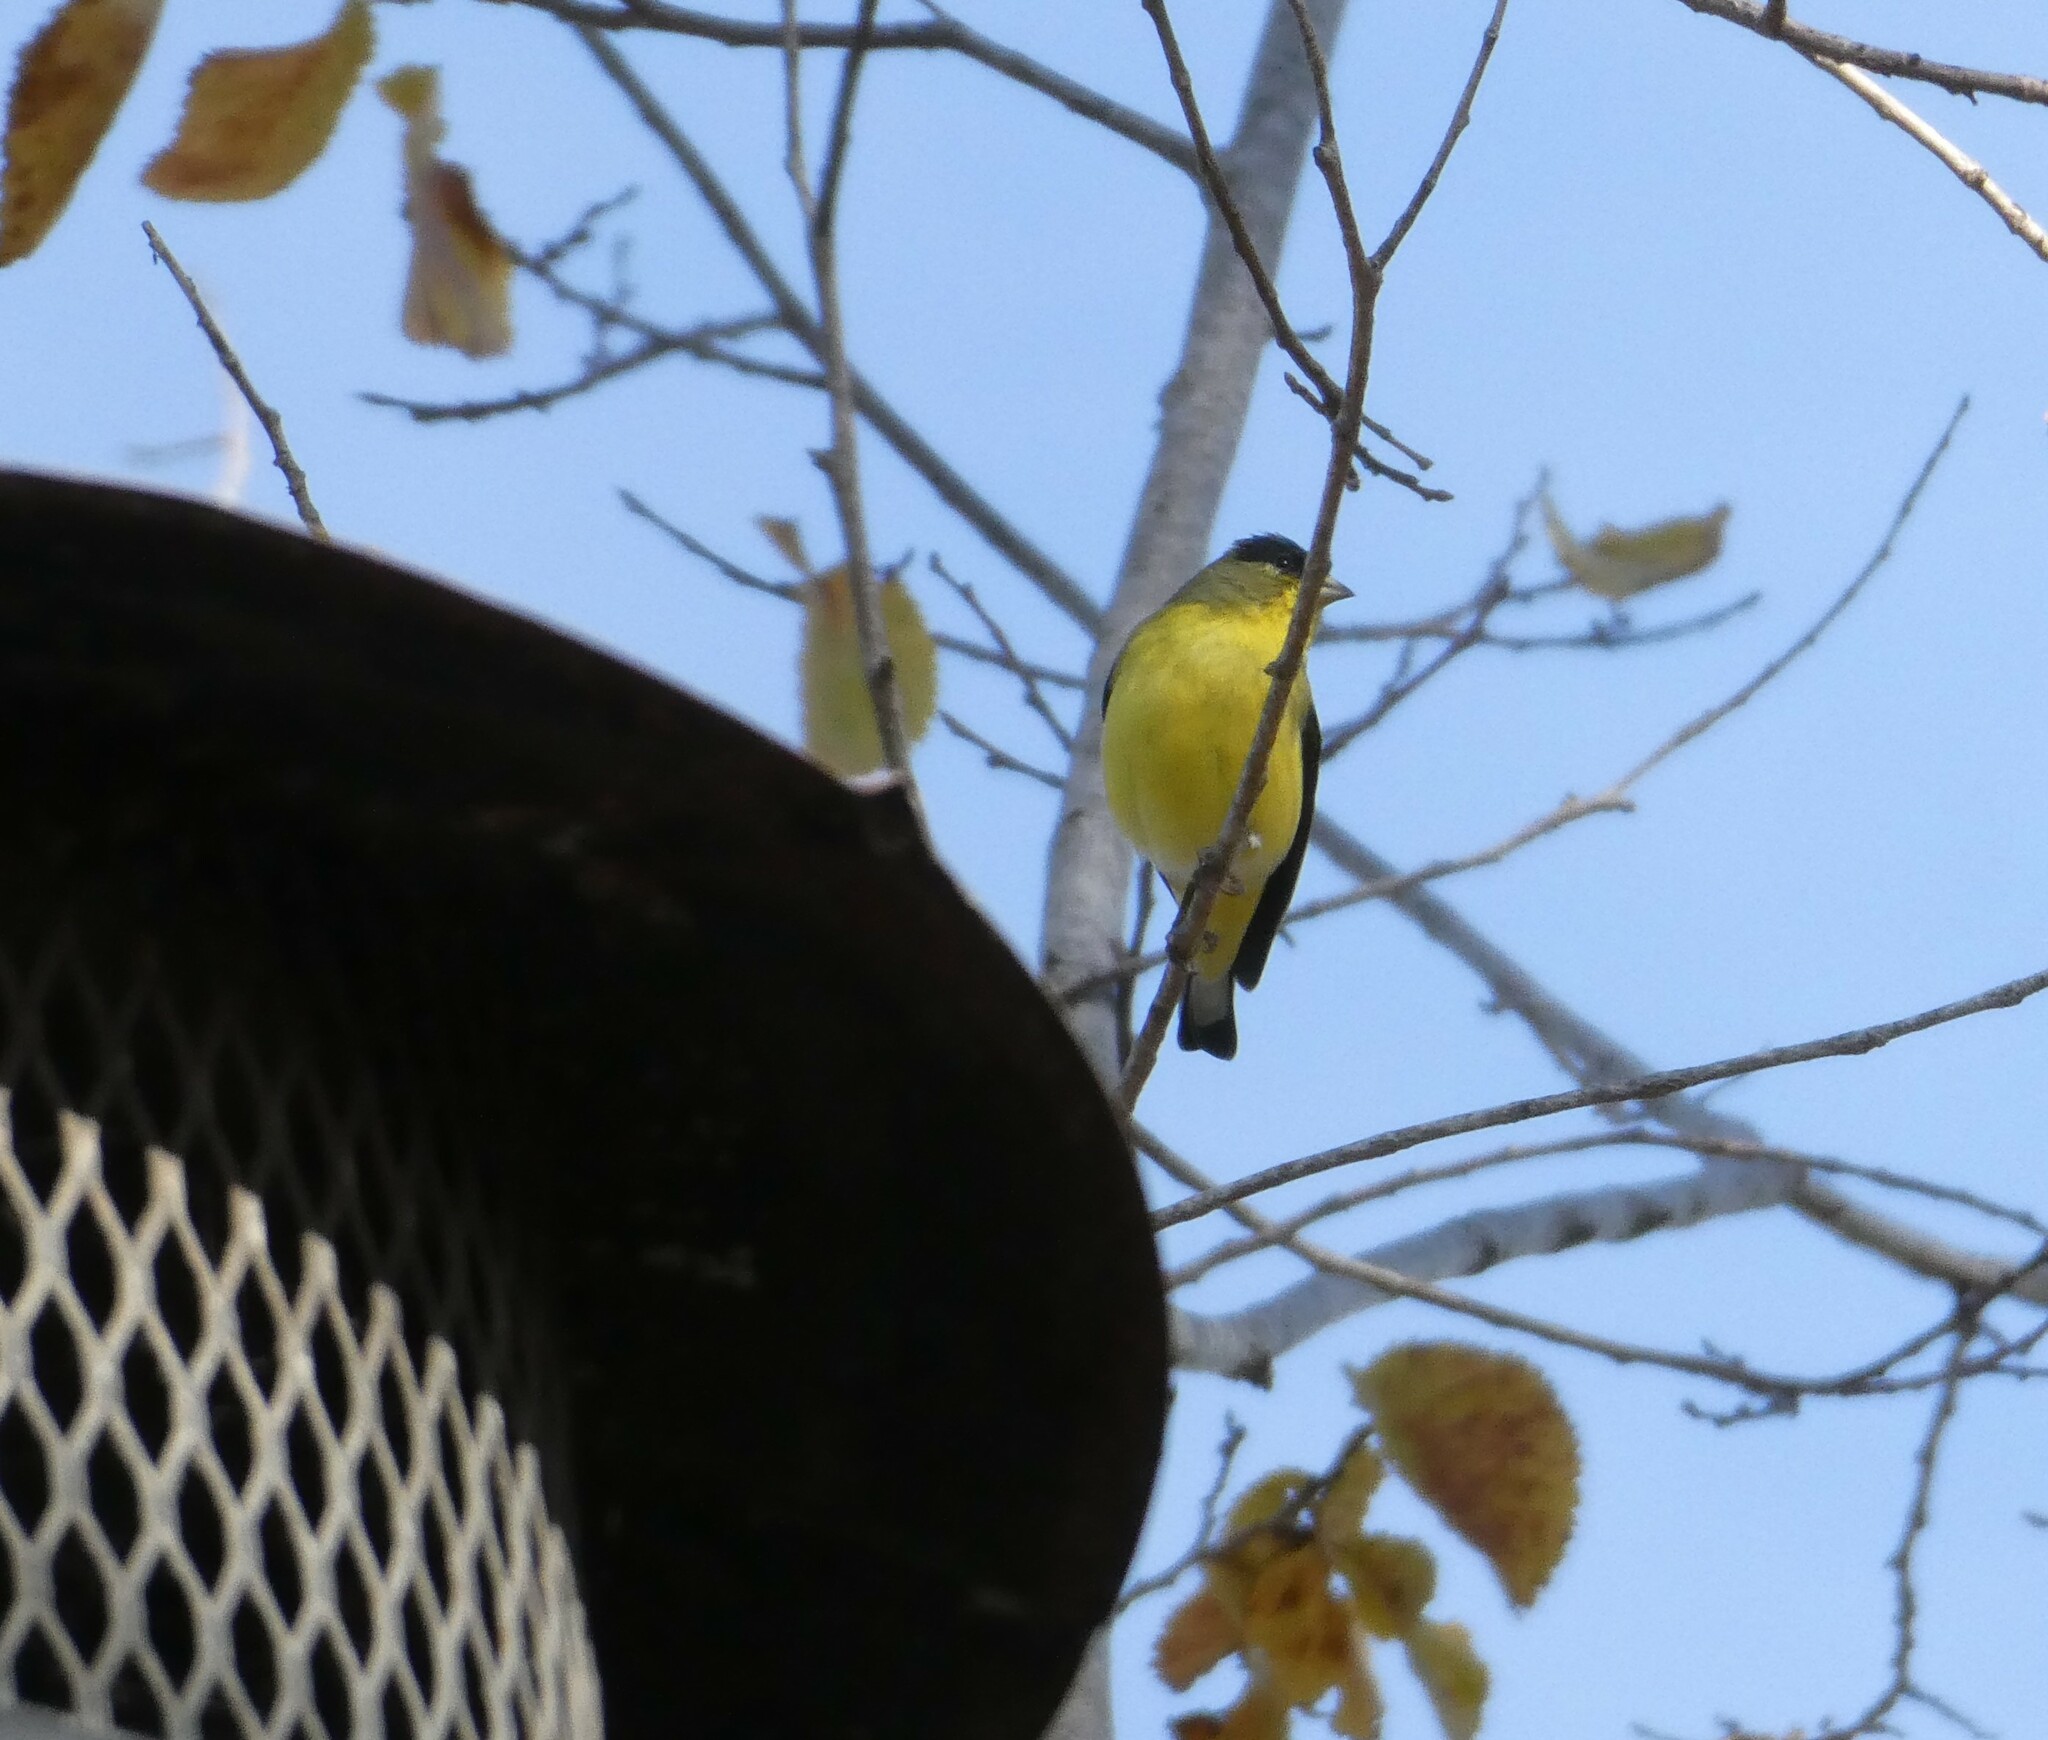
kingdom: Animalia
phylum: Chordata
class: Aves
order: Passeriformes
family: Fringillidae
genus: Spinus
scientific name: Spinus psaltria
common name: Lesser goldfinch
